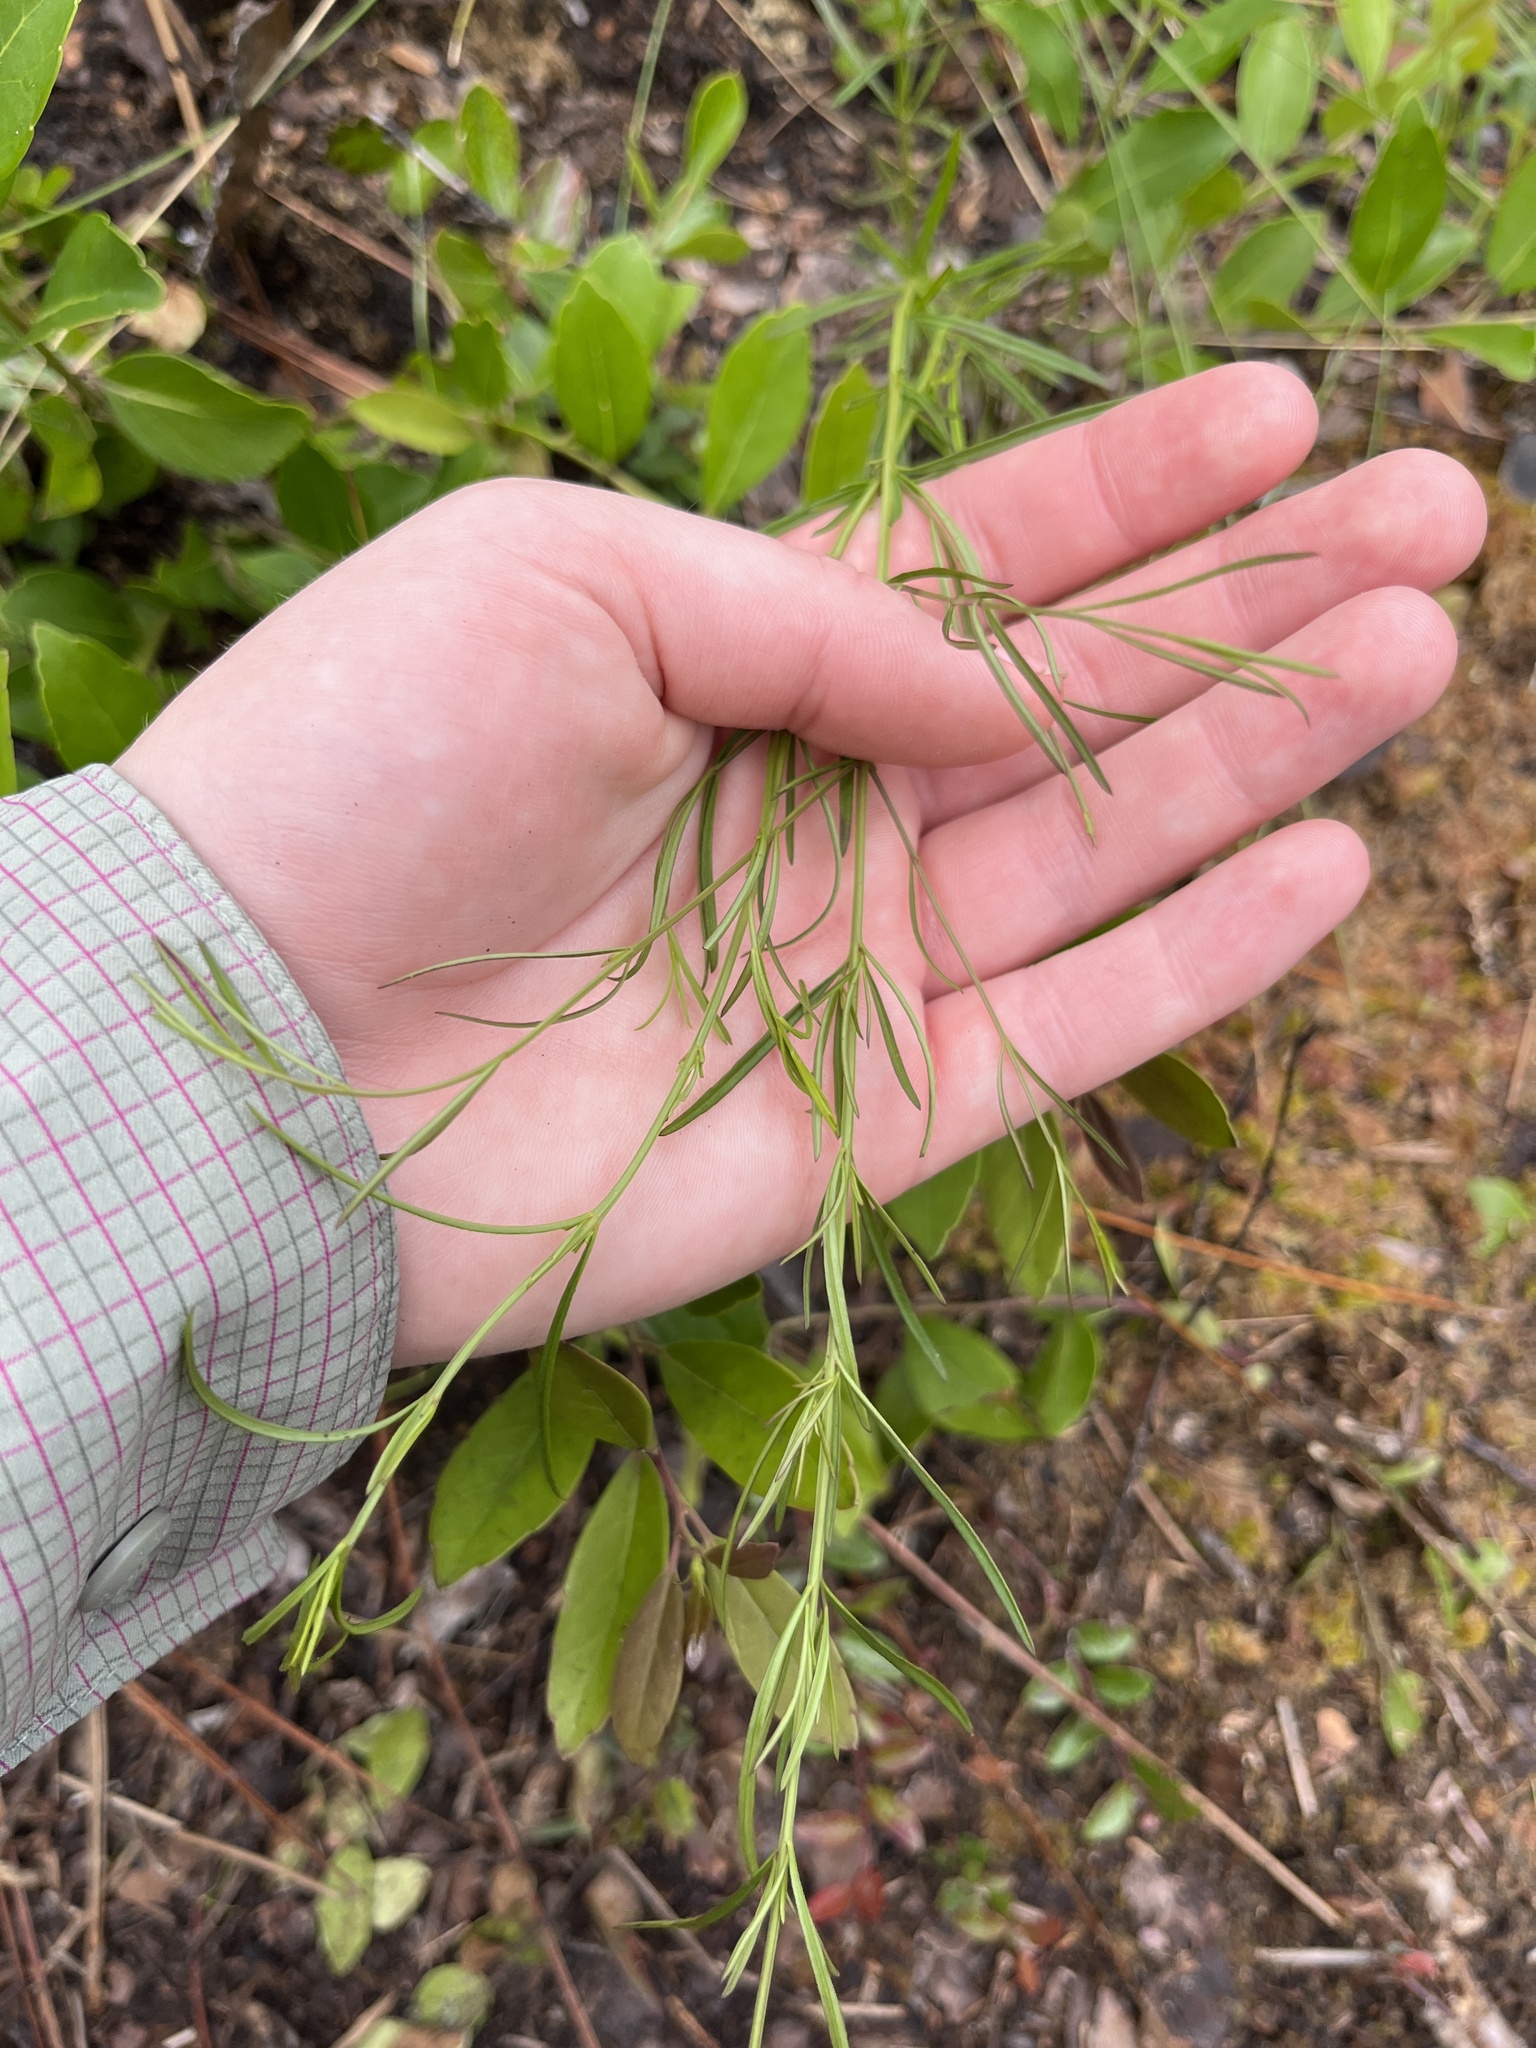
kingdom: Plantae
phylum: Tracheophyta
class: Magnoliopsida
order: Asterales
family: Asteraceae
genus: Eupatorium
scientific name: Eupatorium capillifolium
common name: Dog-fennel
